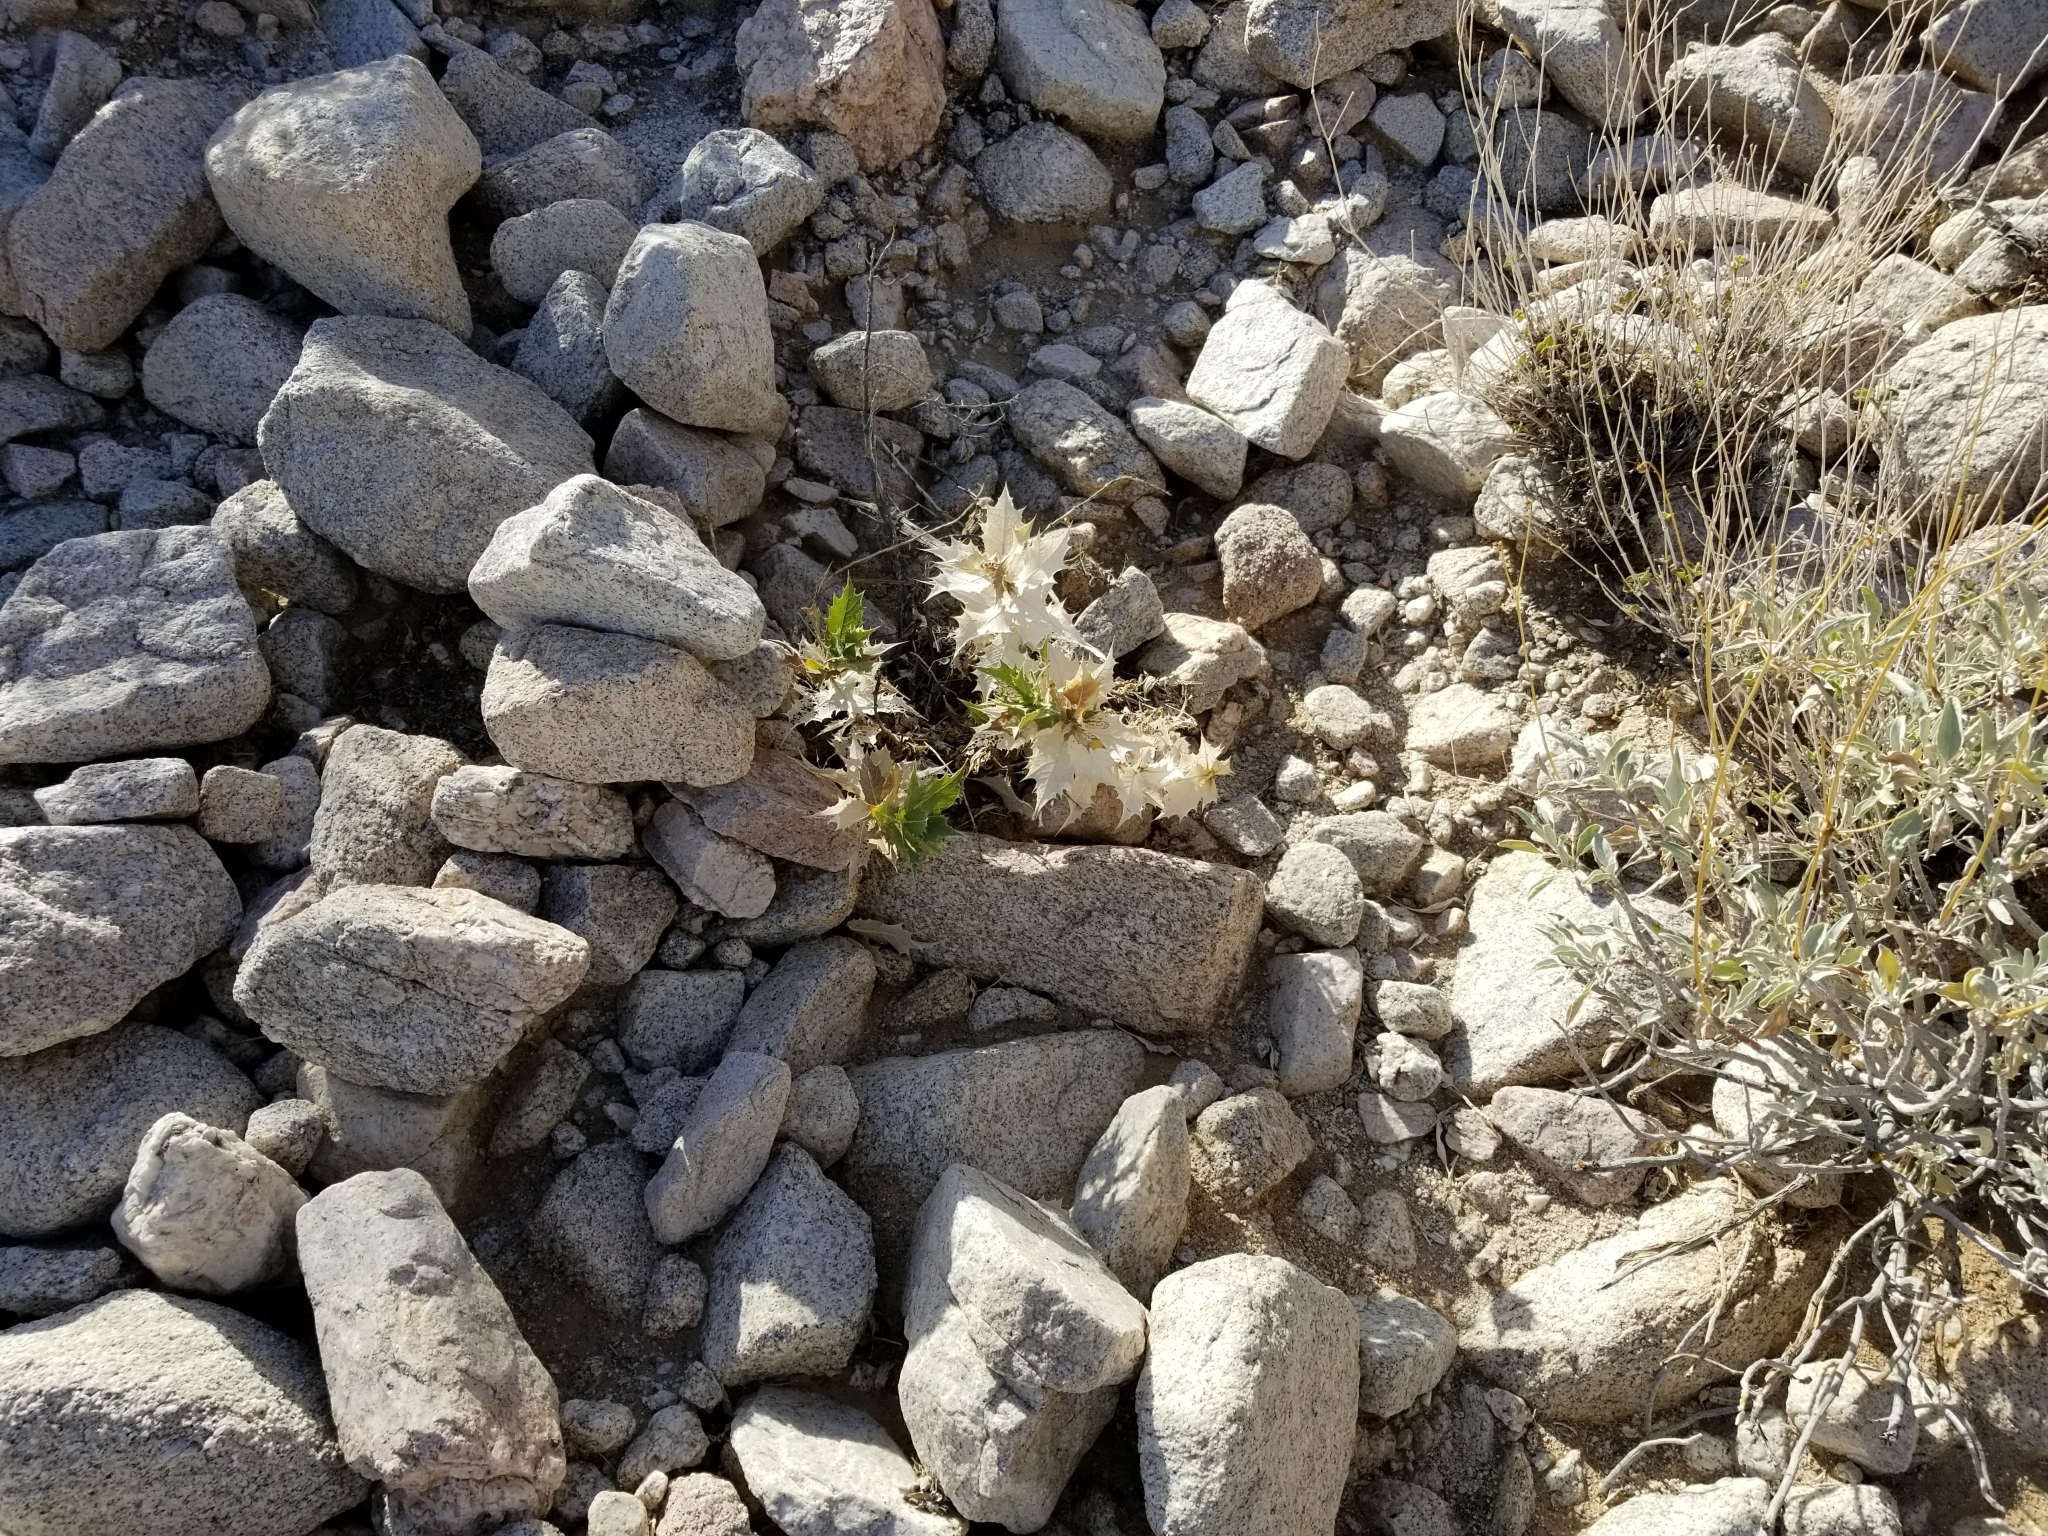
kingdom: Plantae
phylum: Tracheophyta
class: Magnoliopsida
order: Asterales
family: Asteraceae
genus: Ambrosia
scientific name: Ambrosia ilicifolia
